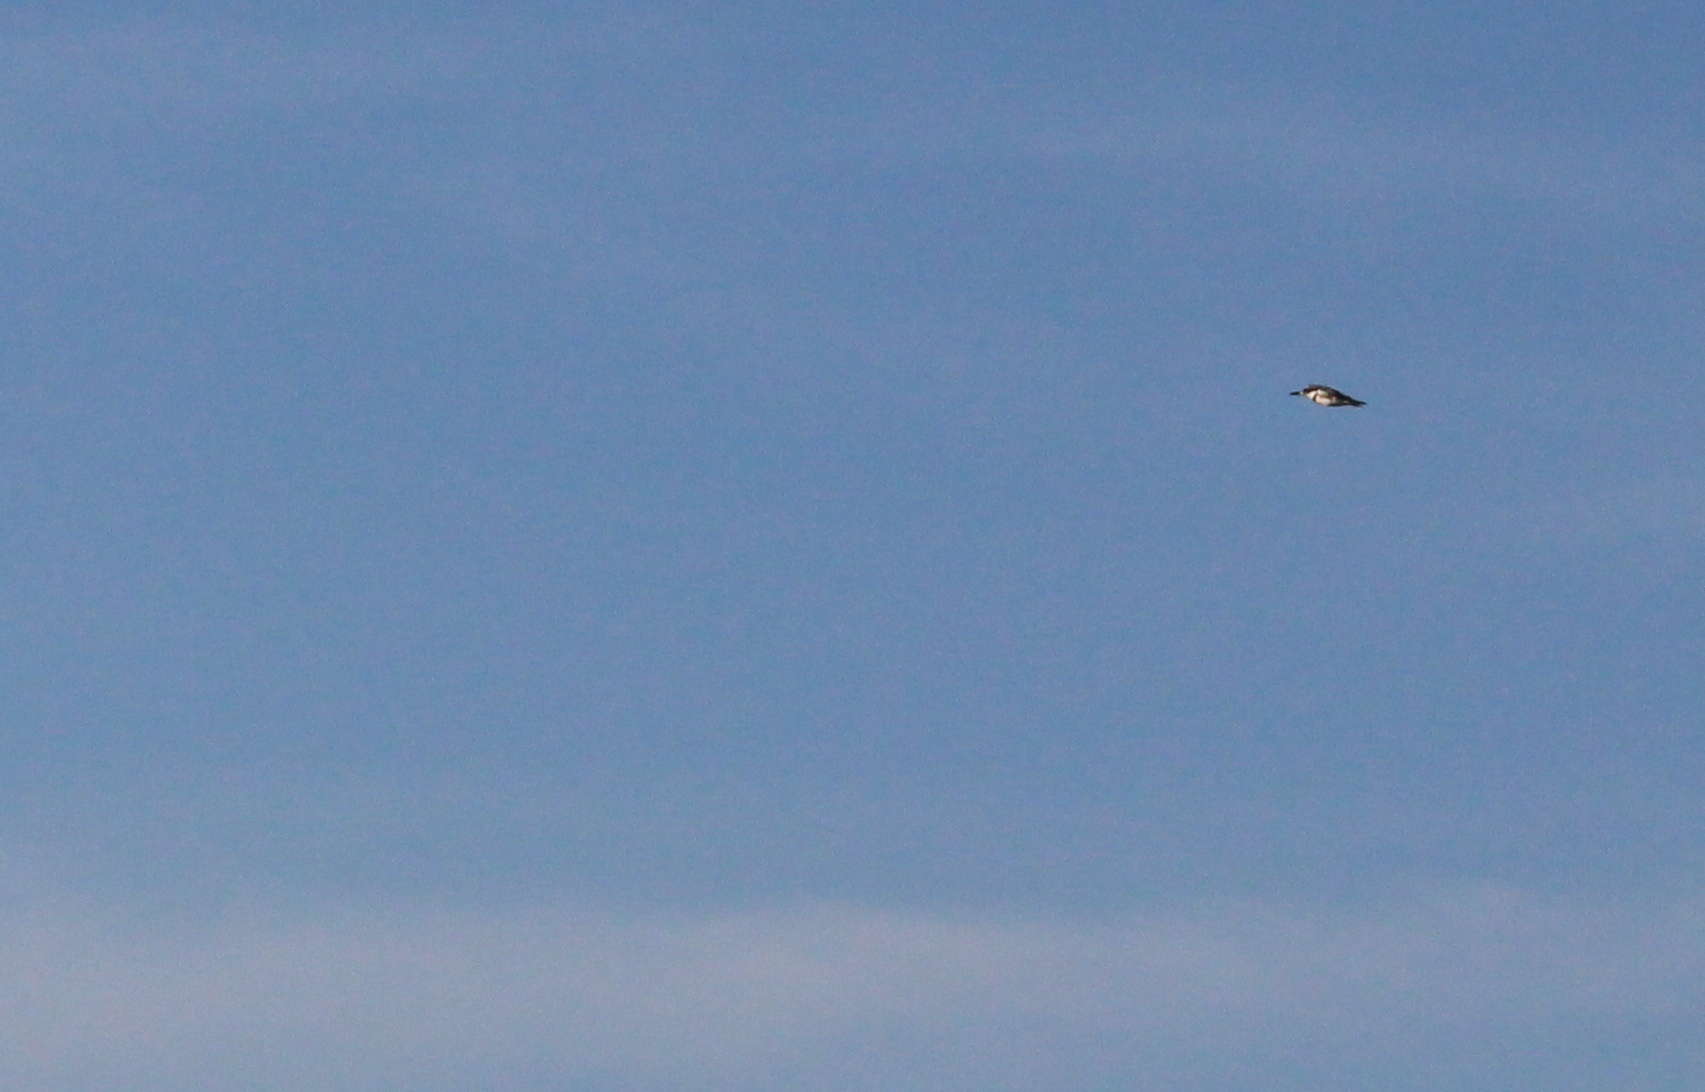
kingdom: Animalia
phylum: Chordata
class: Aves
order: Coraciiformes
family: Alcedinidae
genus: Megaceryle
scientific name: Megaceryle alcyon
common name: Belted kingfisher
